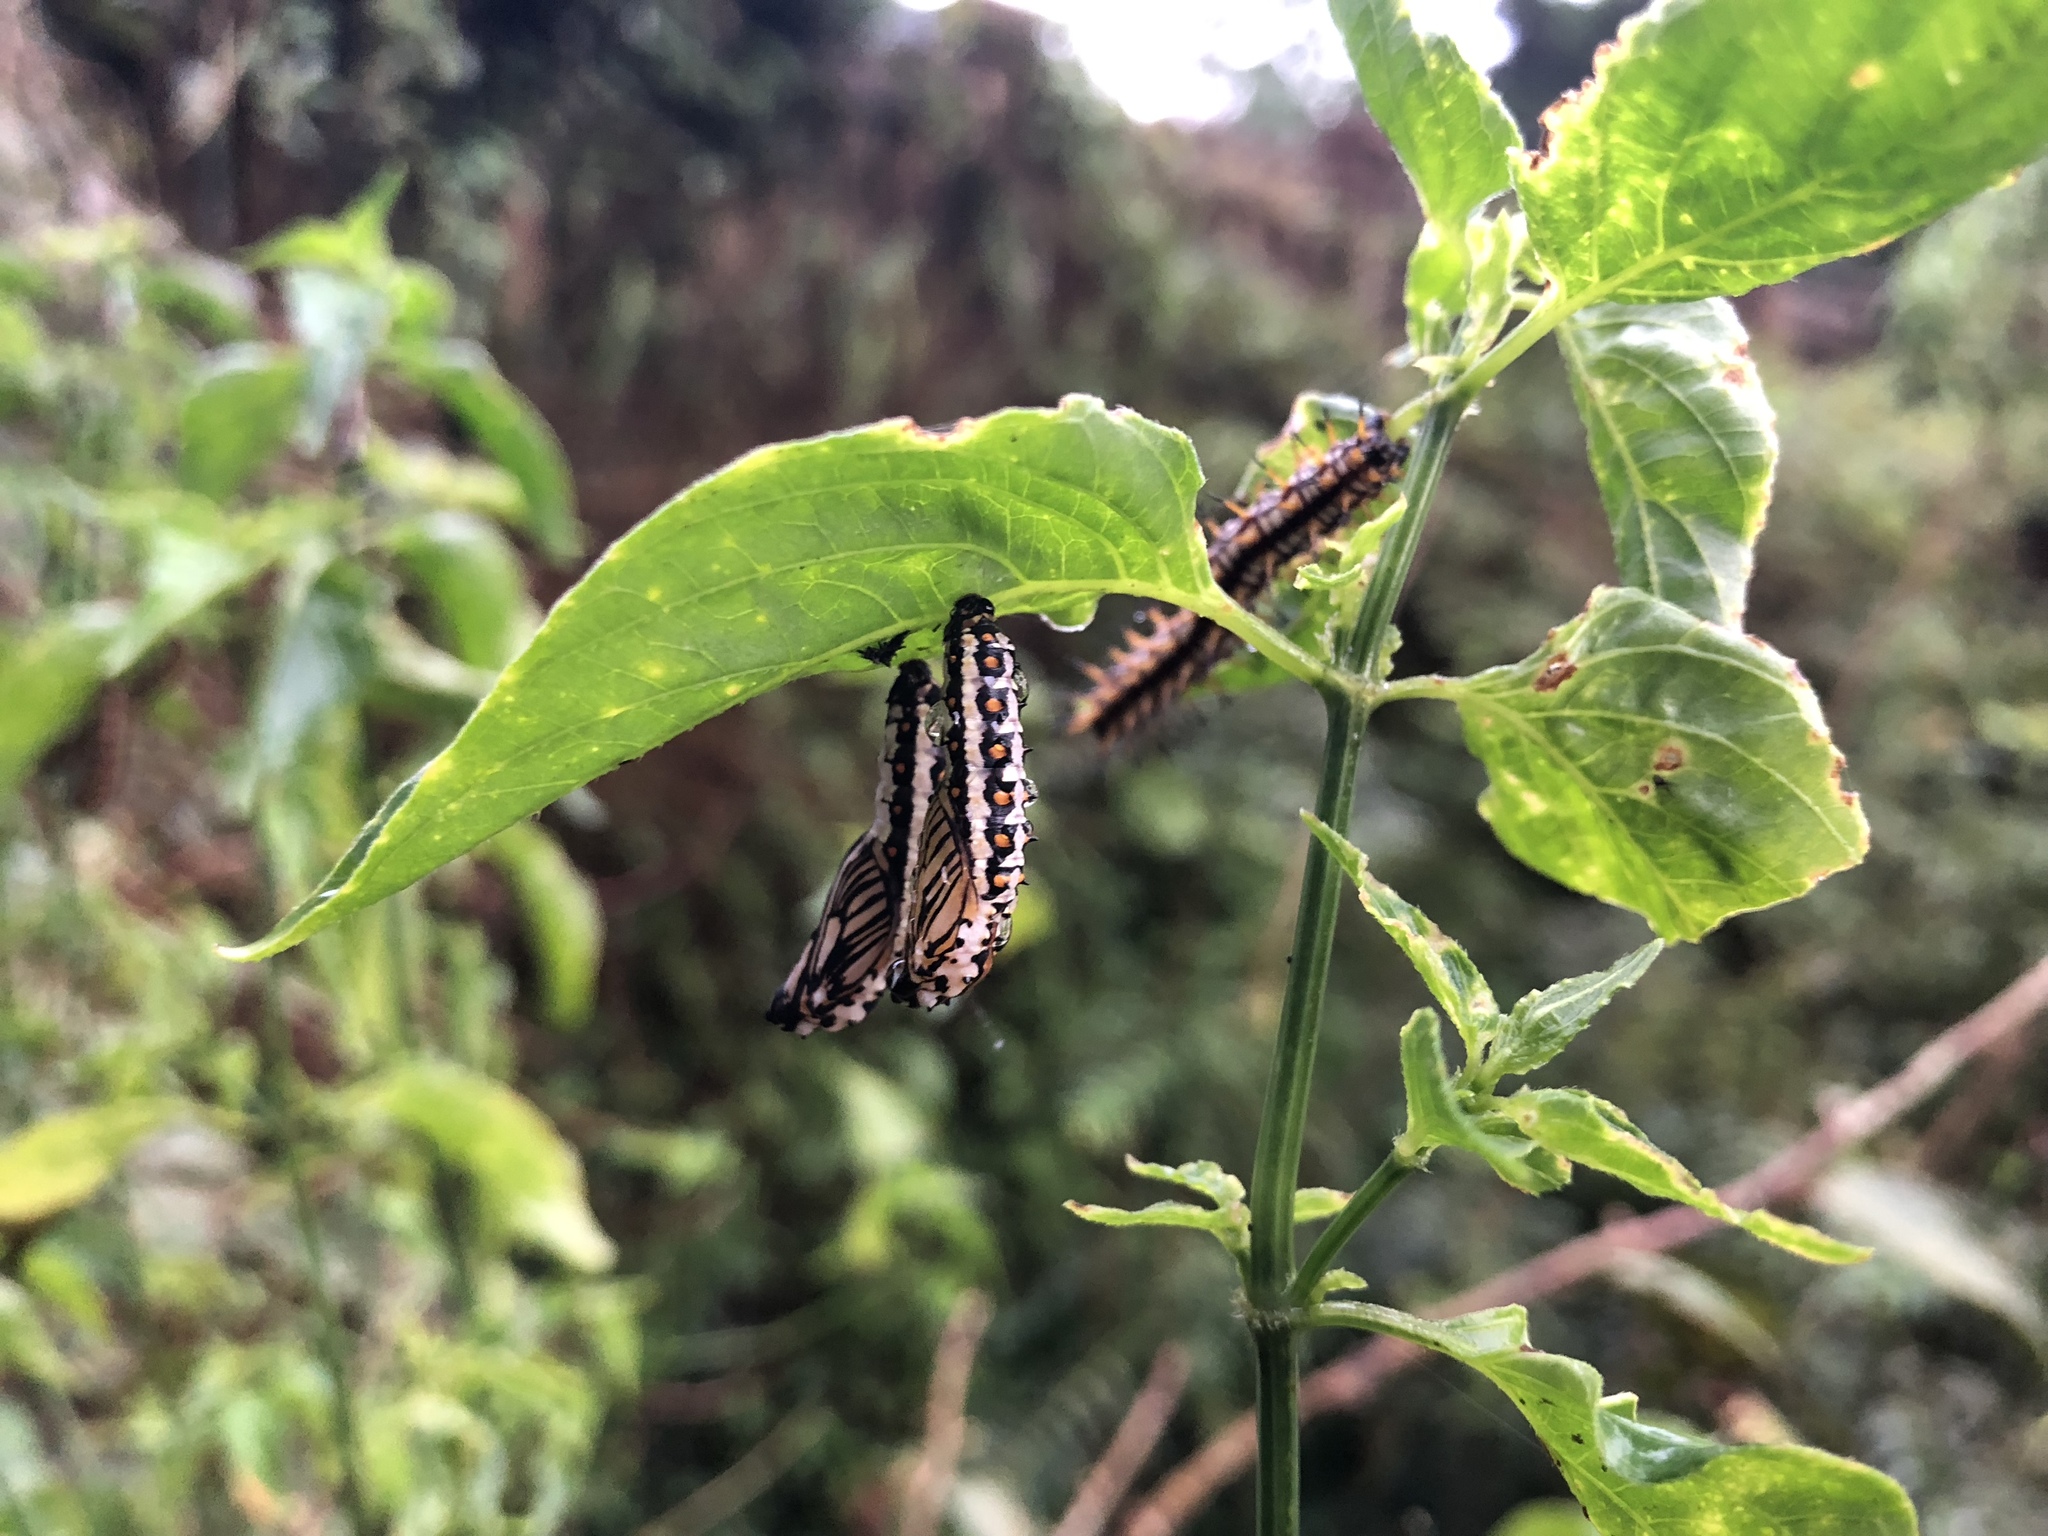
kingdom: Animalia
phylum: Arthropoda
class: Insecta
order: Lepidoptera
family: Nymphalidae
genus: Acraea
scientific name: Acraea Telchinia issoria
